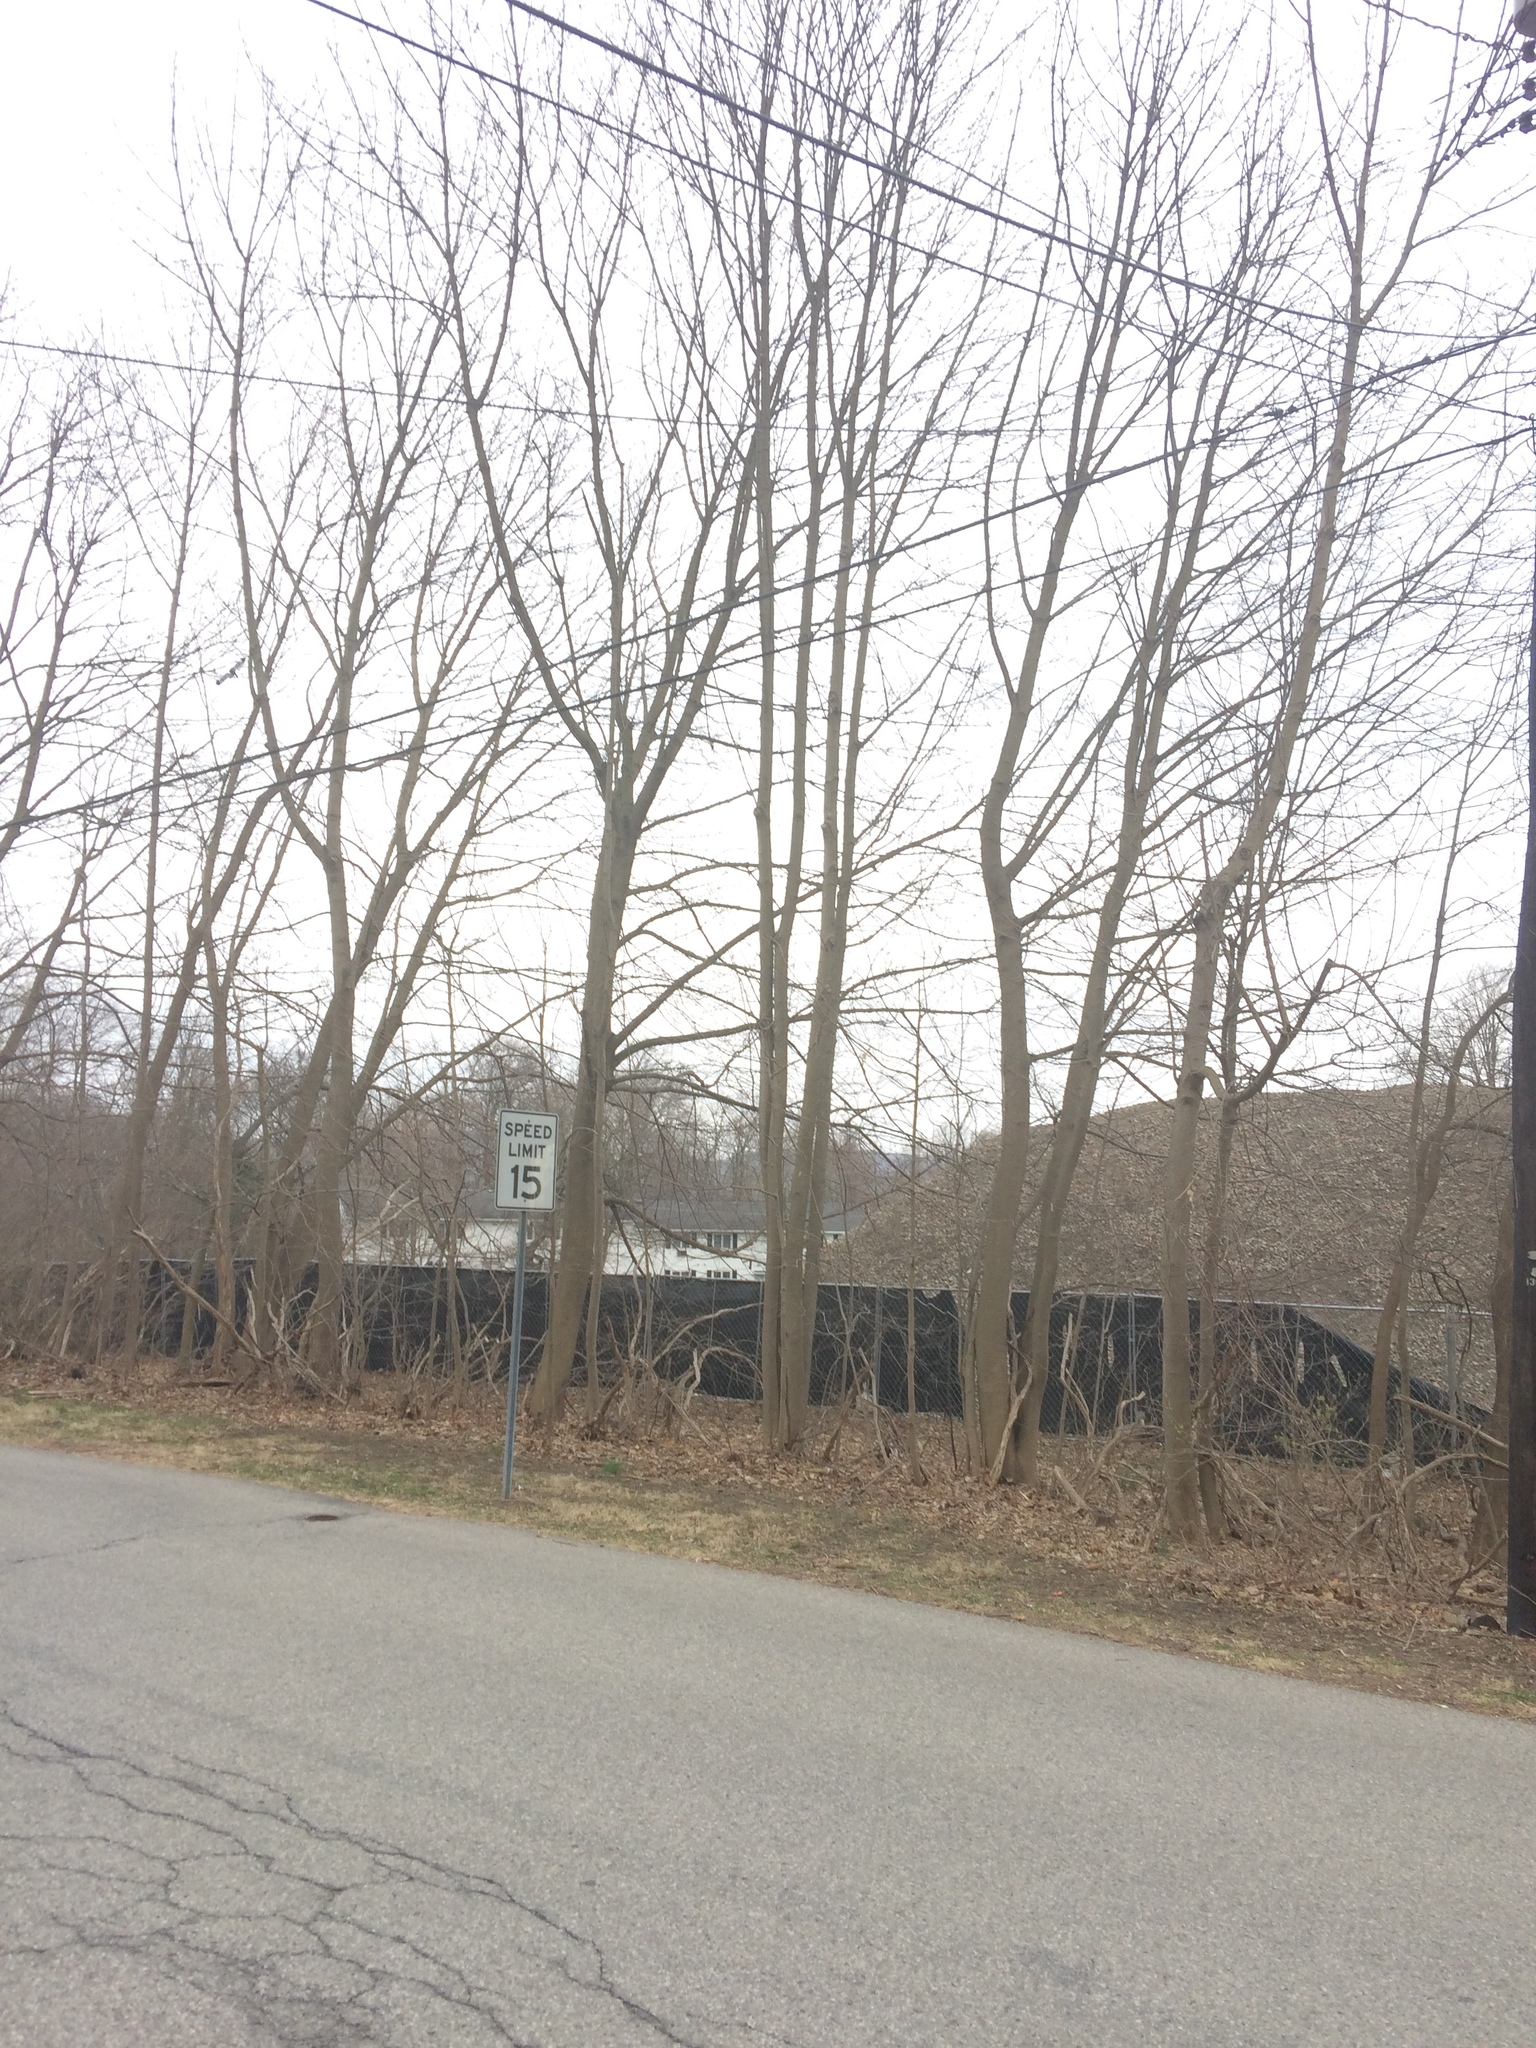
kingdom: Plantae
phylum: Tracheophyta
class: Magnoliopsida
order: Sapindales
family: Sapindaceae
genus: Acer
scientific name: Acer platanoides
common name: Norway maple
